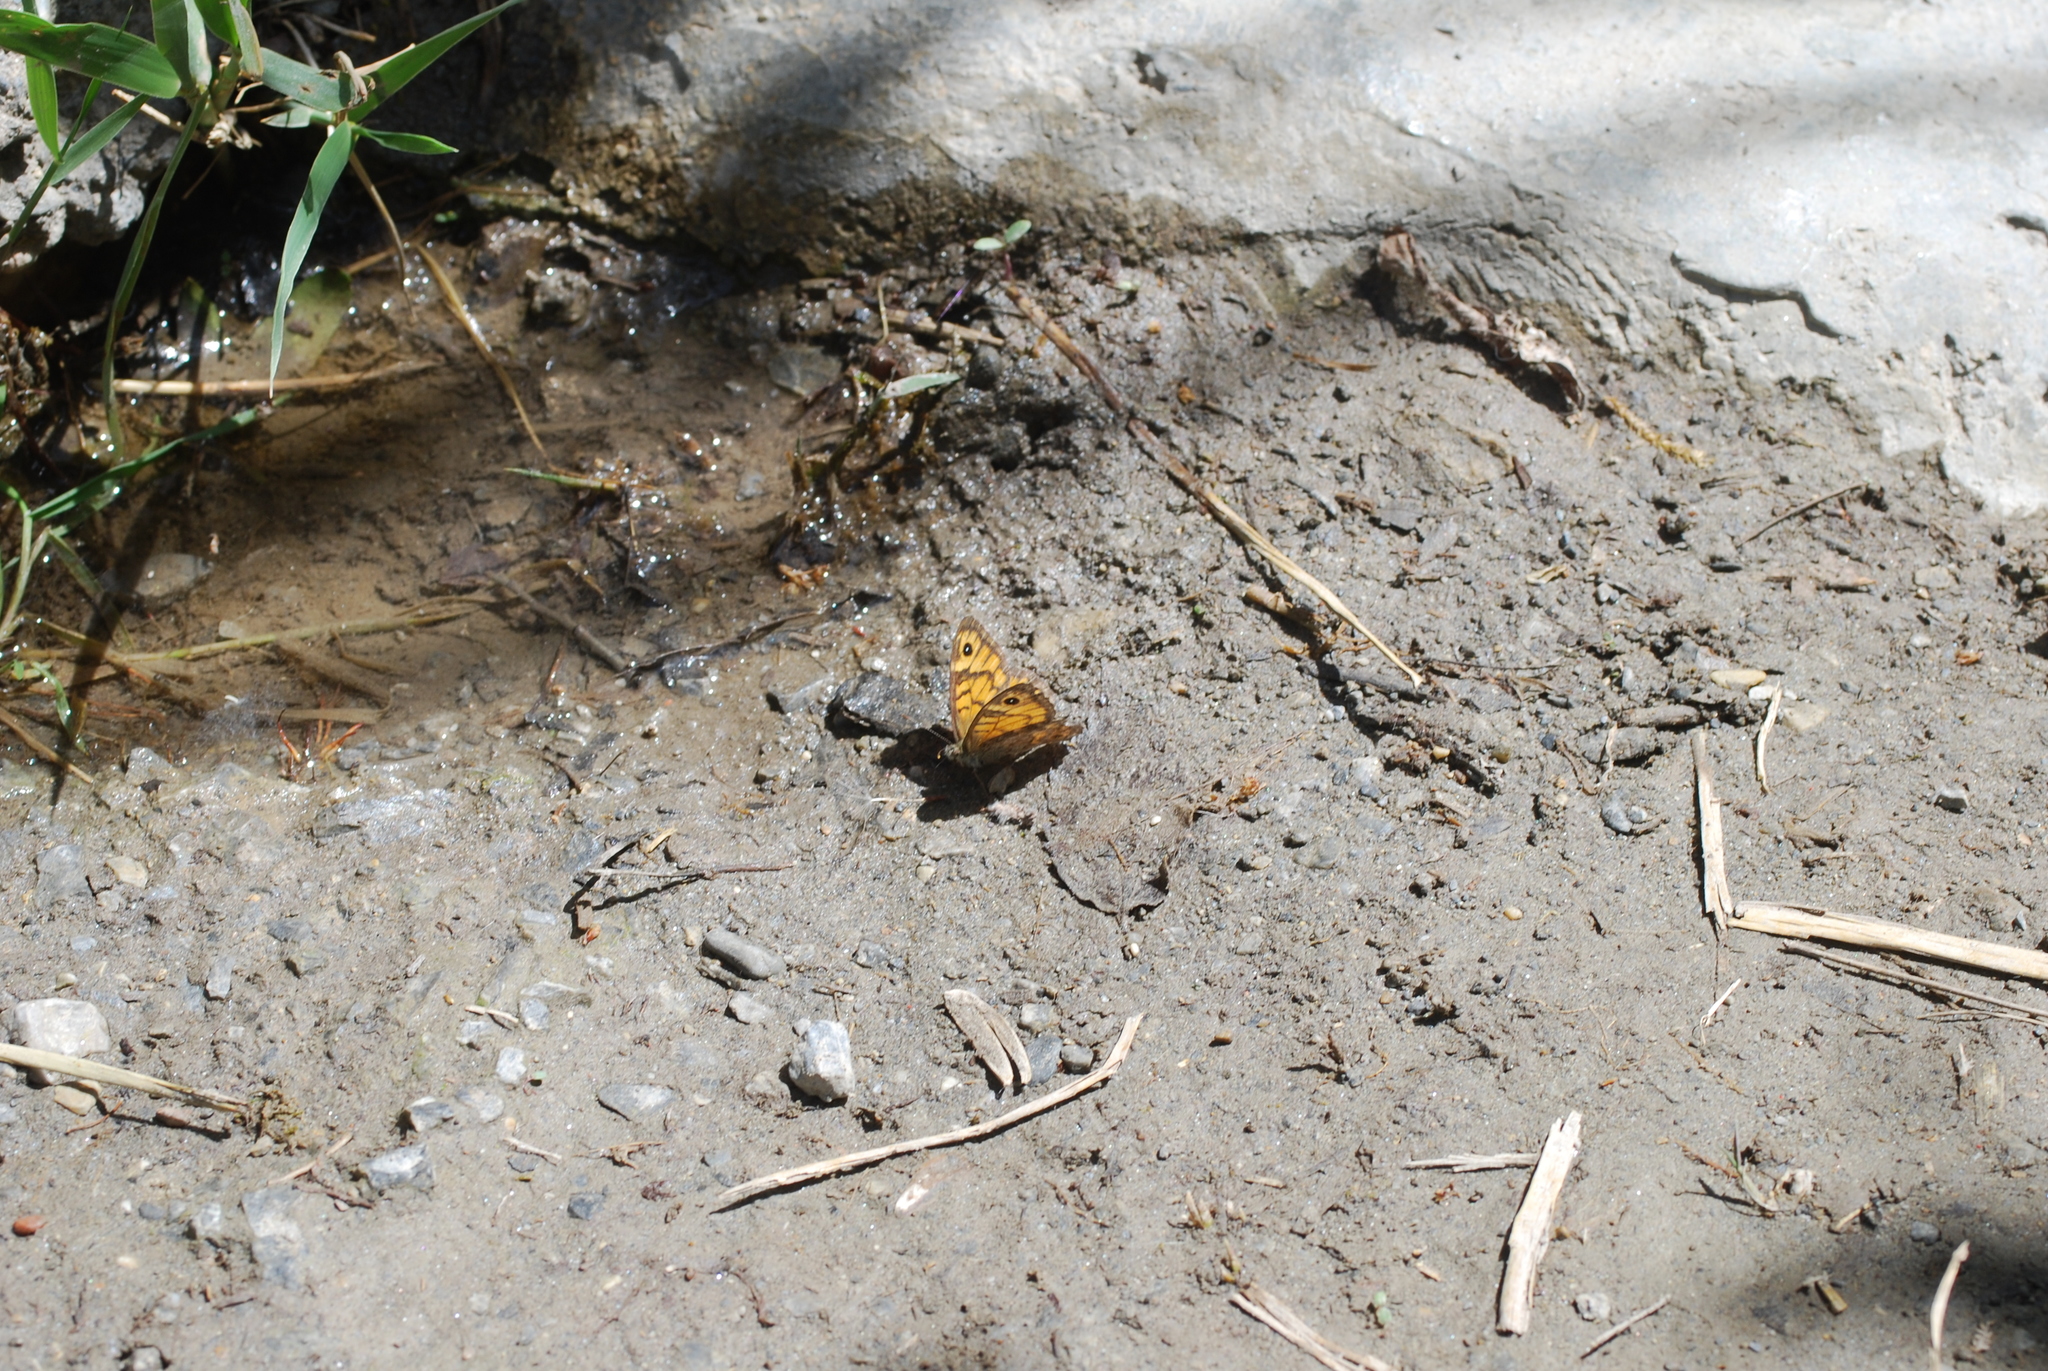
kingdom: Animalia
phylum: Arthropoda
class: Insecta
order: Lepidoptera
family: Nymphalidae
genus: Pararge
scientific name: Pararge Lasiommata megera
